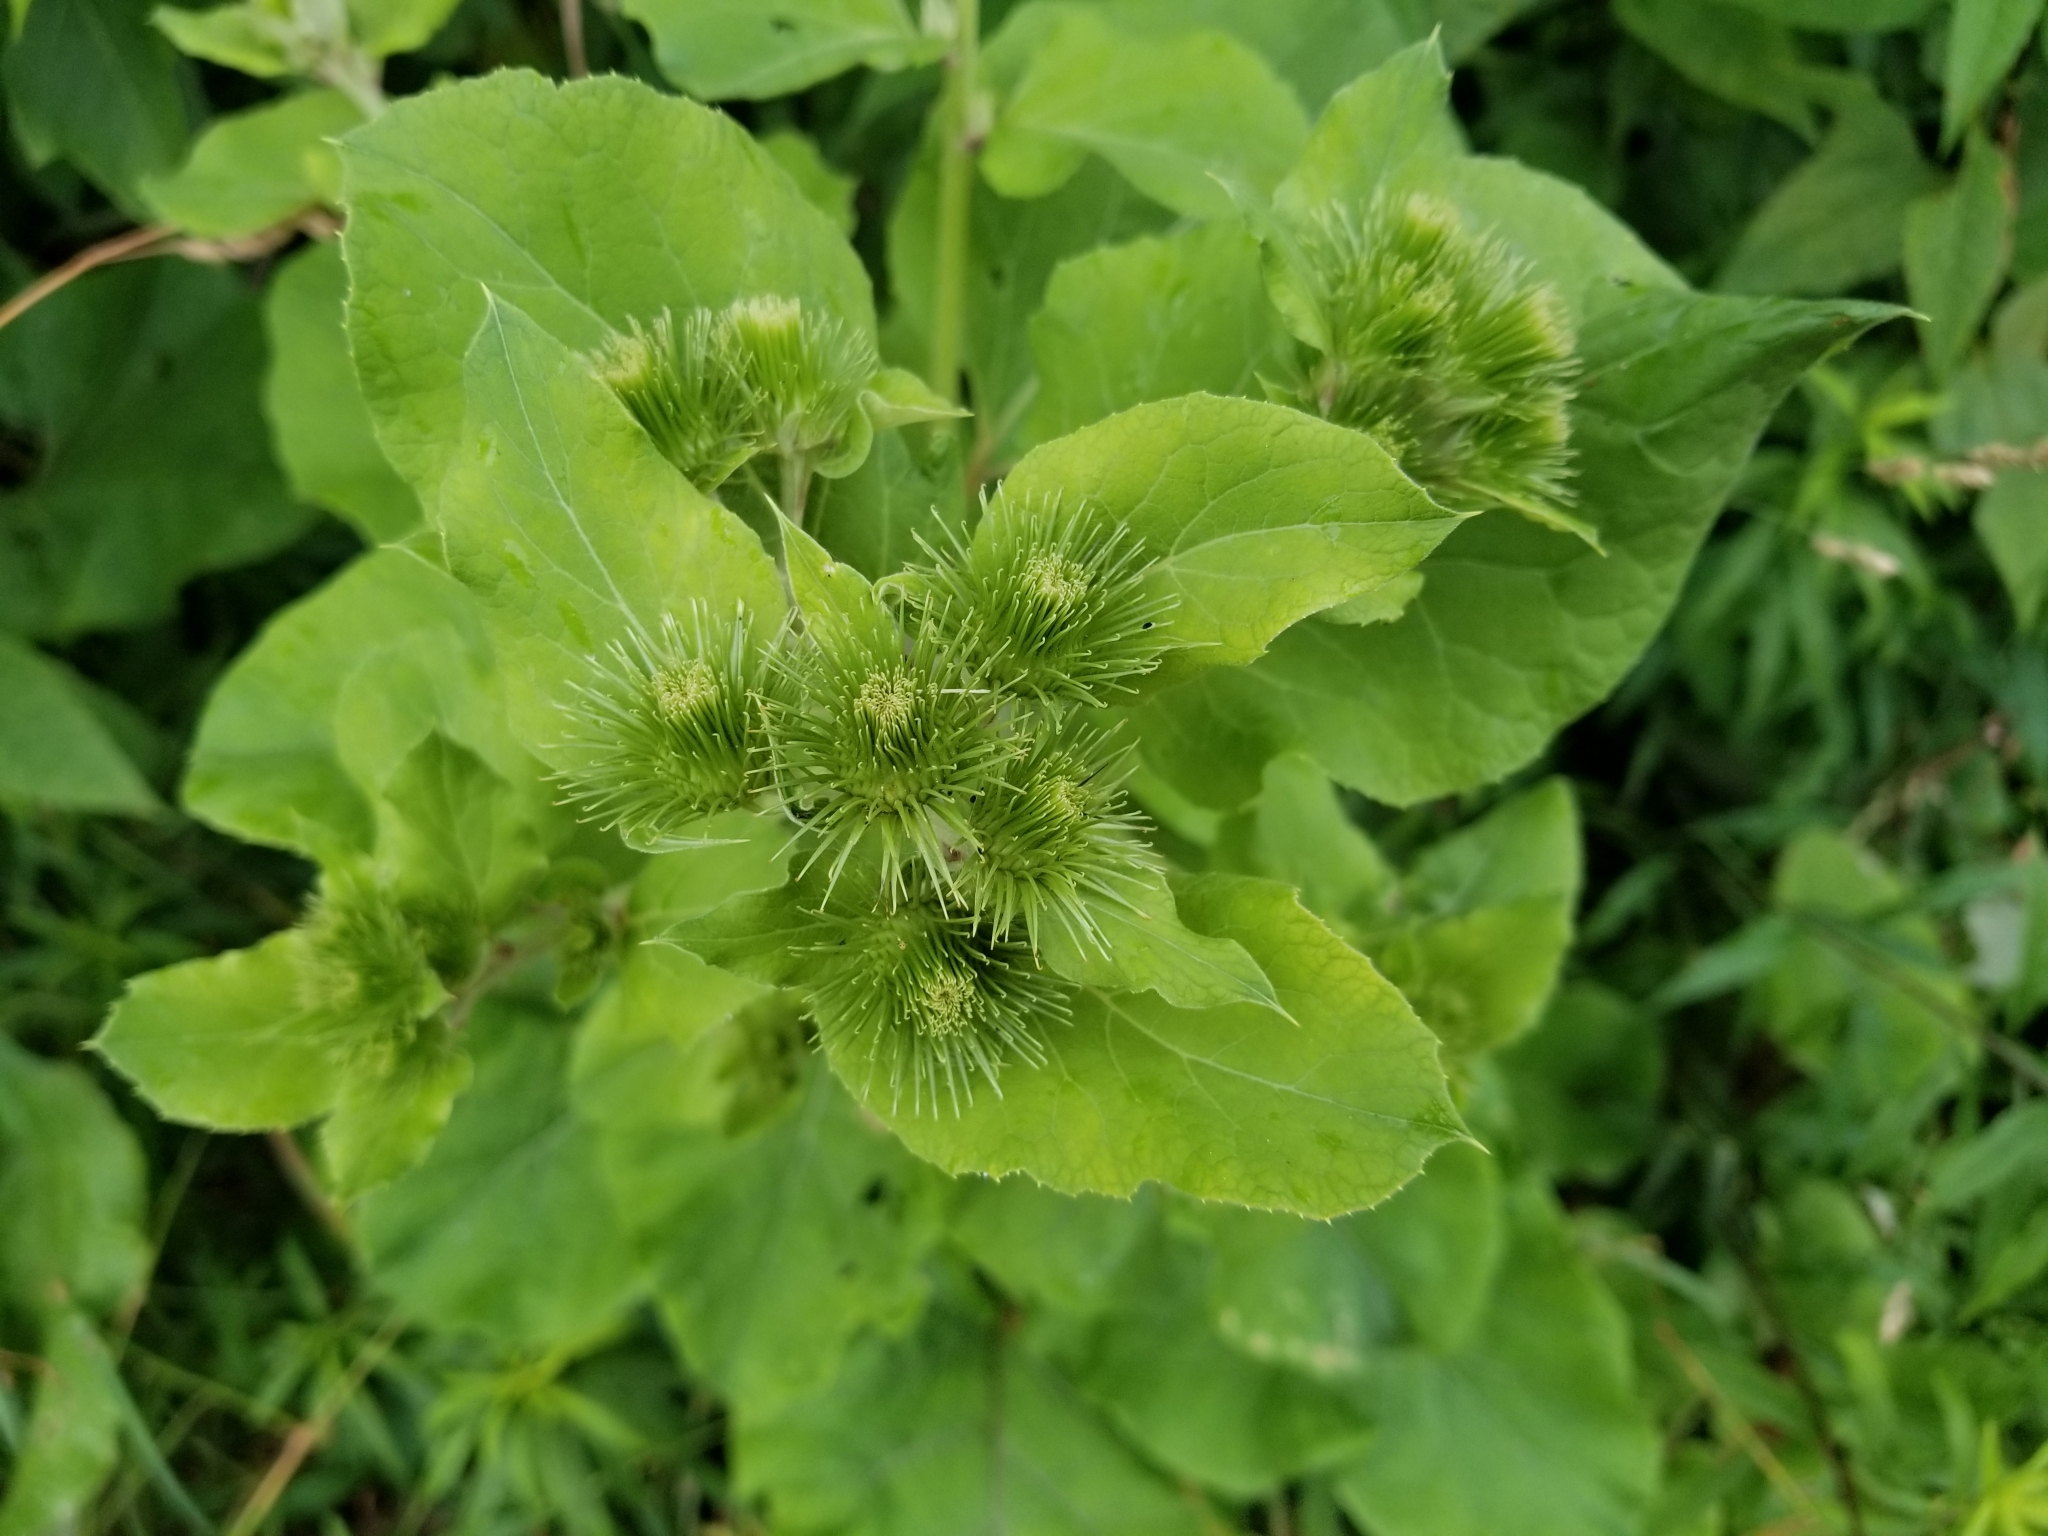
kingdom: Plantae
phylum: Tracheophyta
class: Magnoliopsida
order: Asterales
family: Asteraceae
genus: Arctium
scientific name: Arctium lappa
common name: Greater burdock
